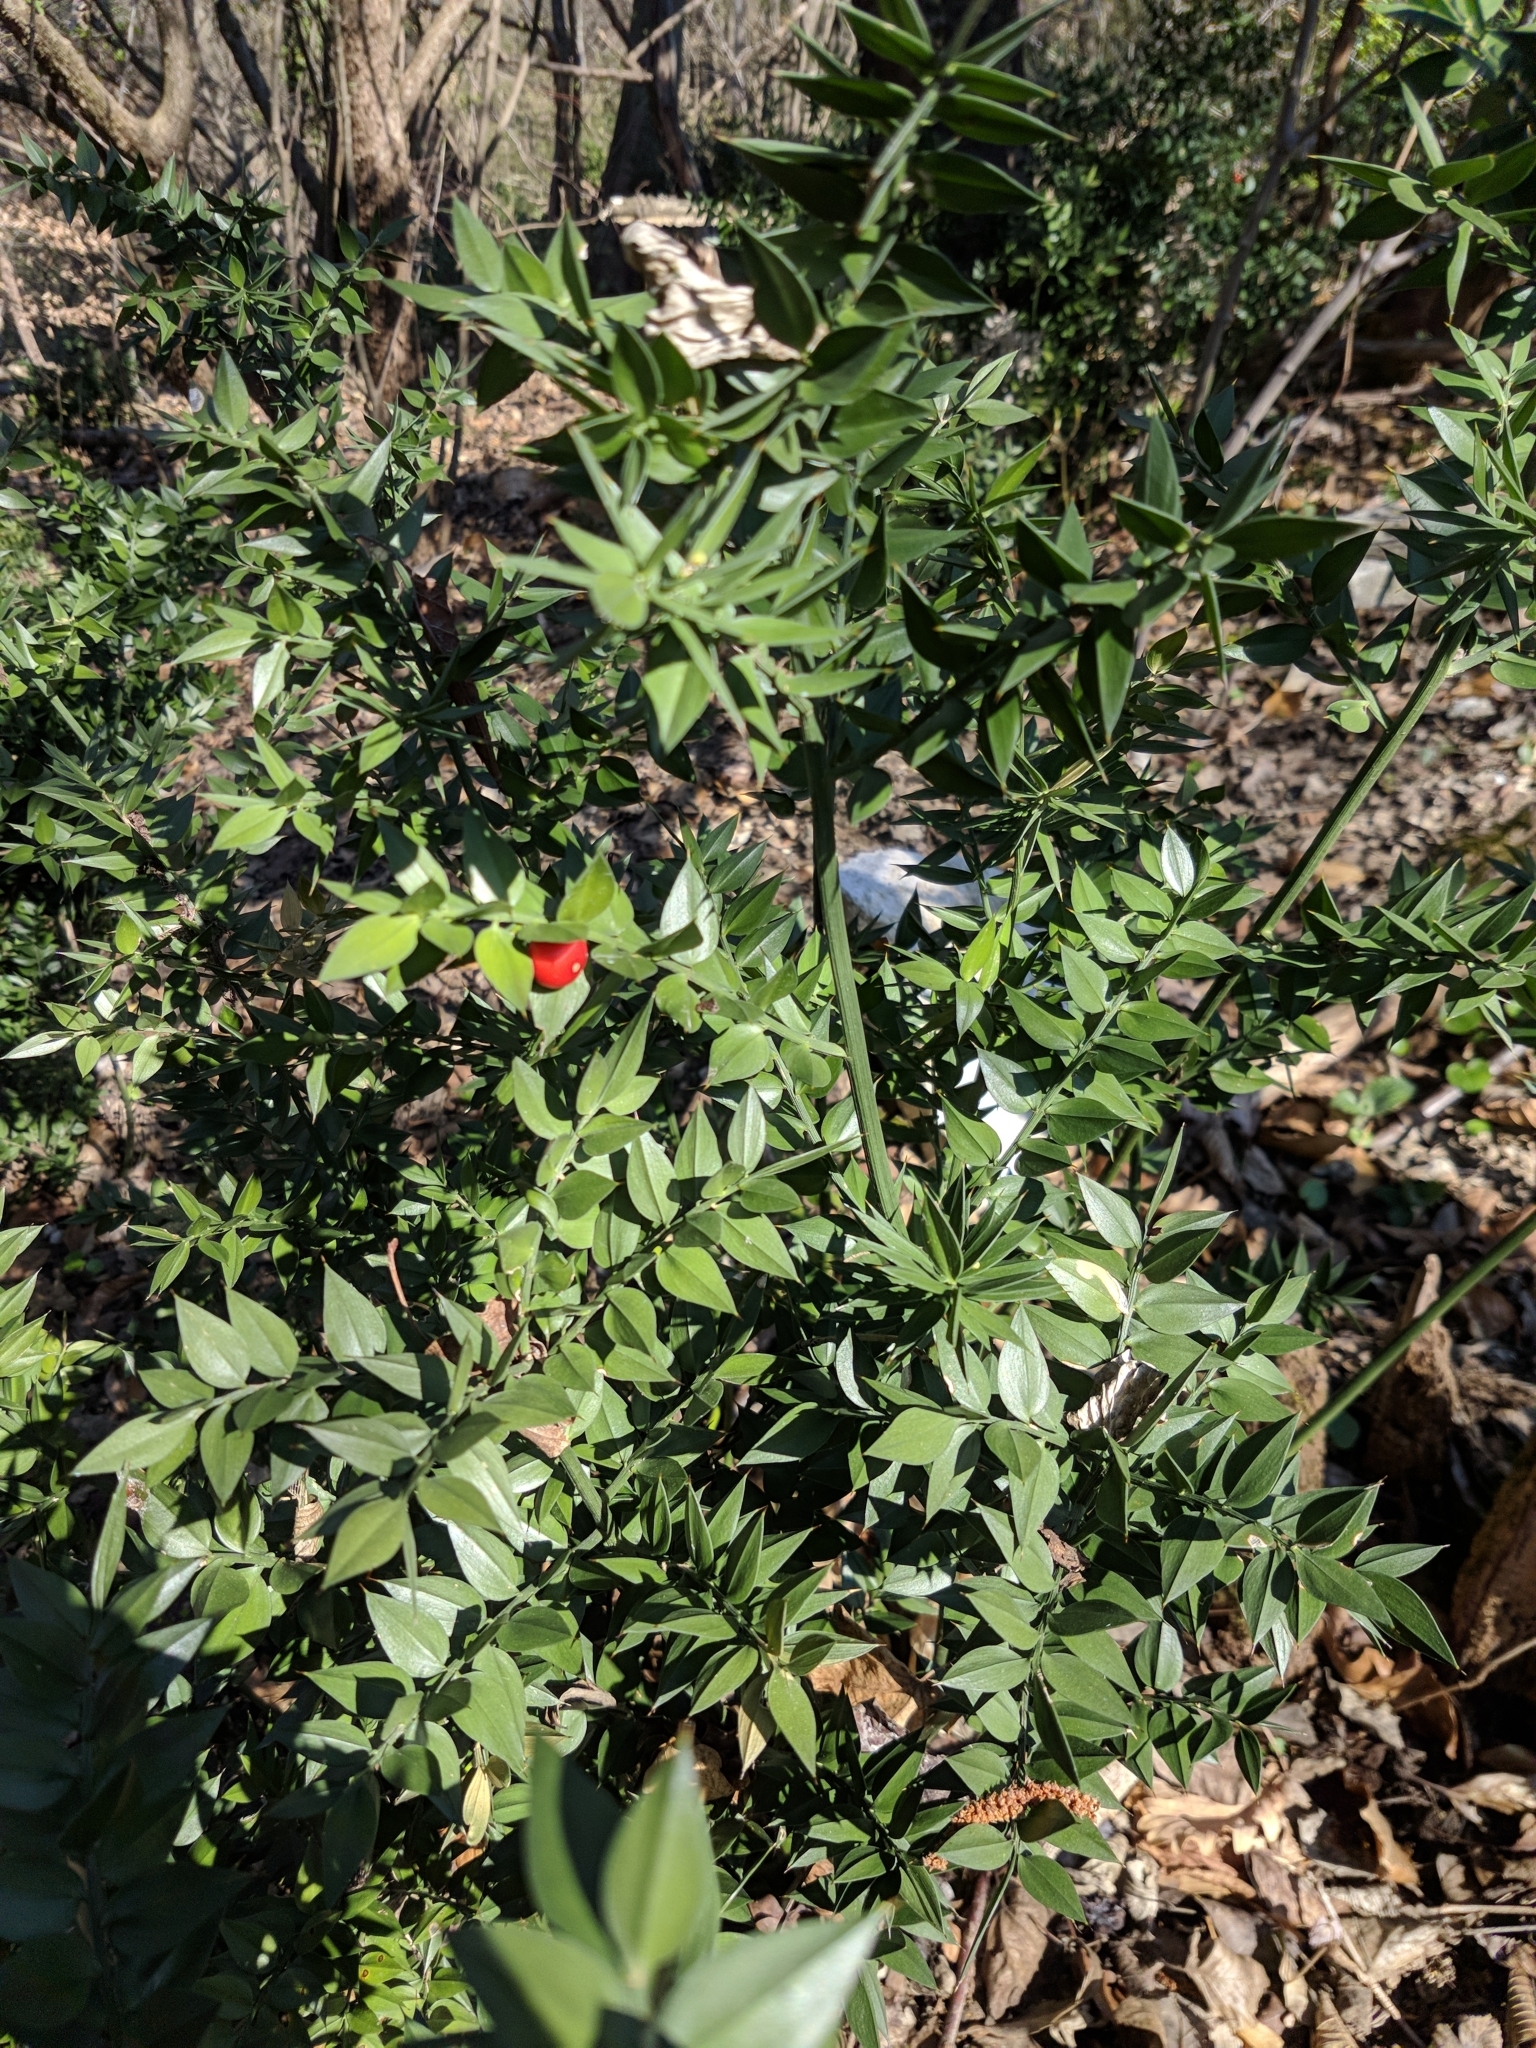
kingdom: Plantae
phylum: Tracheophyta
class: Liliopsida
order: Asparagales
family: Asparagaceae
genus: Ruscus
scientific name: Ruscus aculeatus
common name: Butcher's-broom
